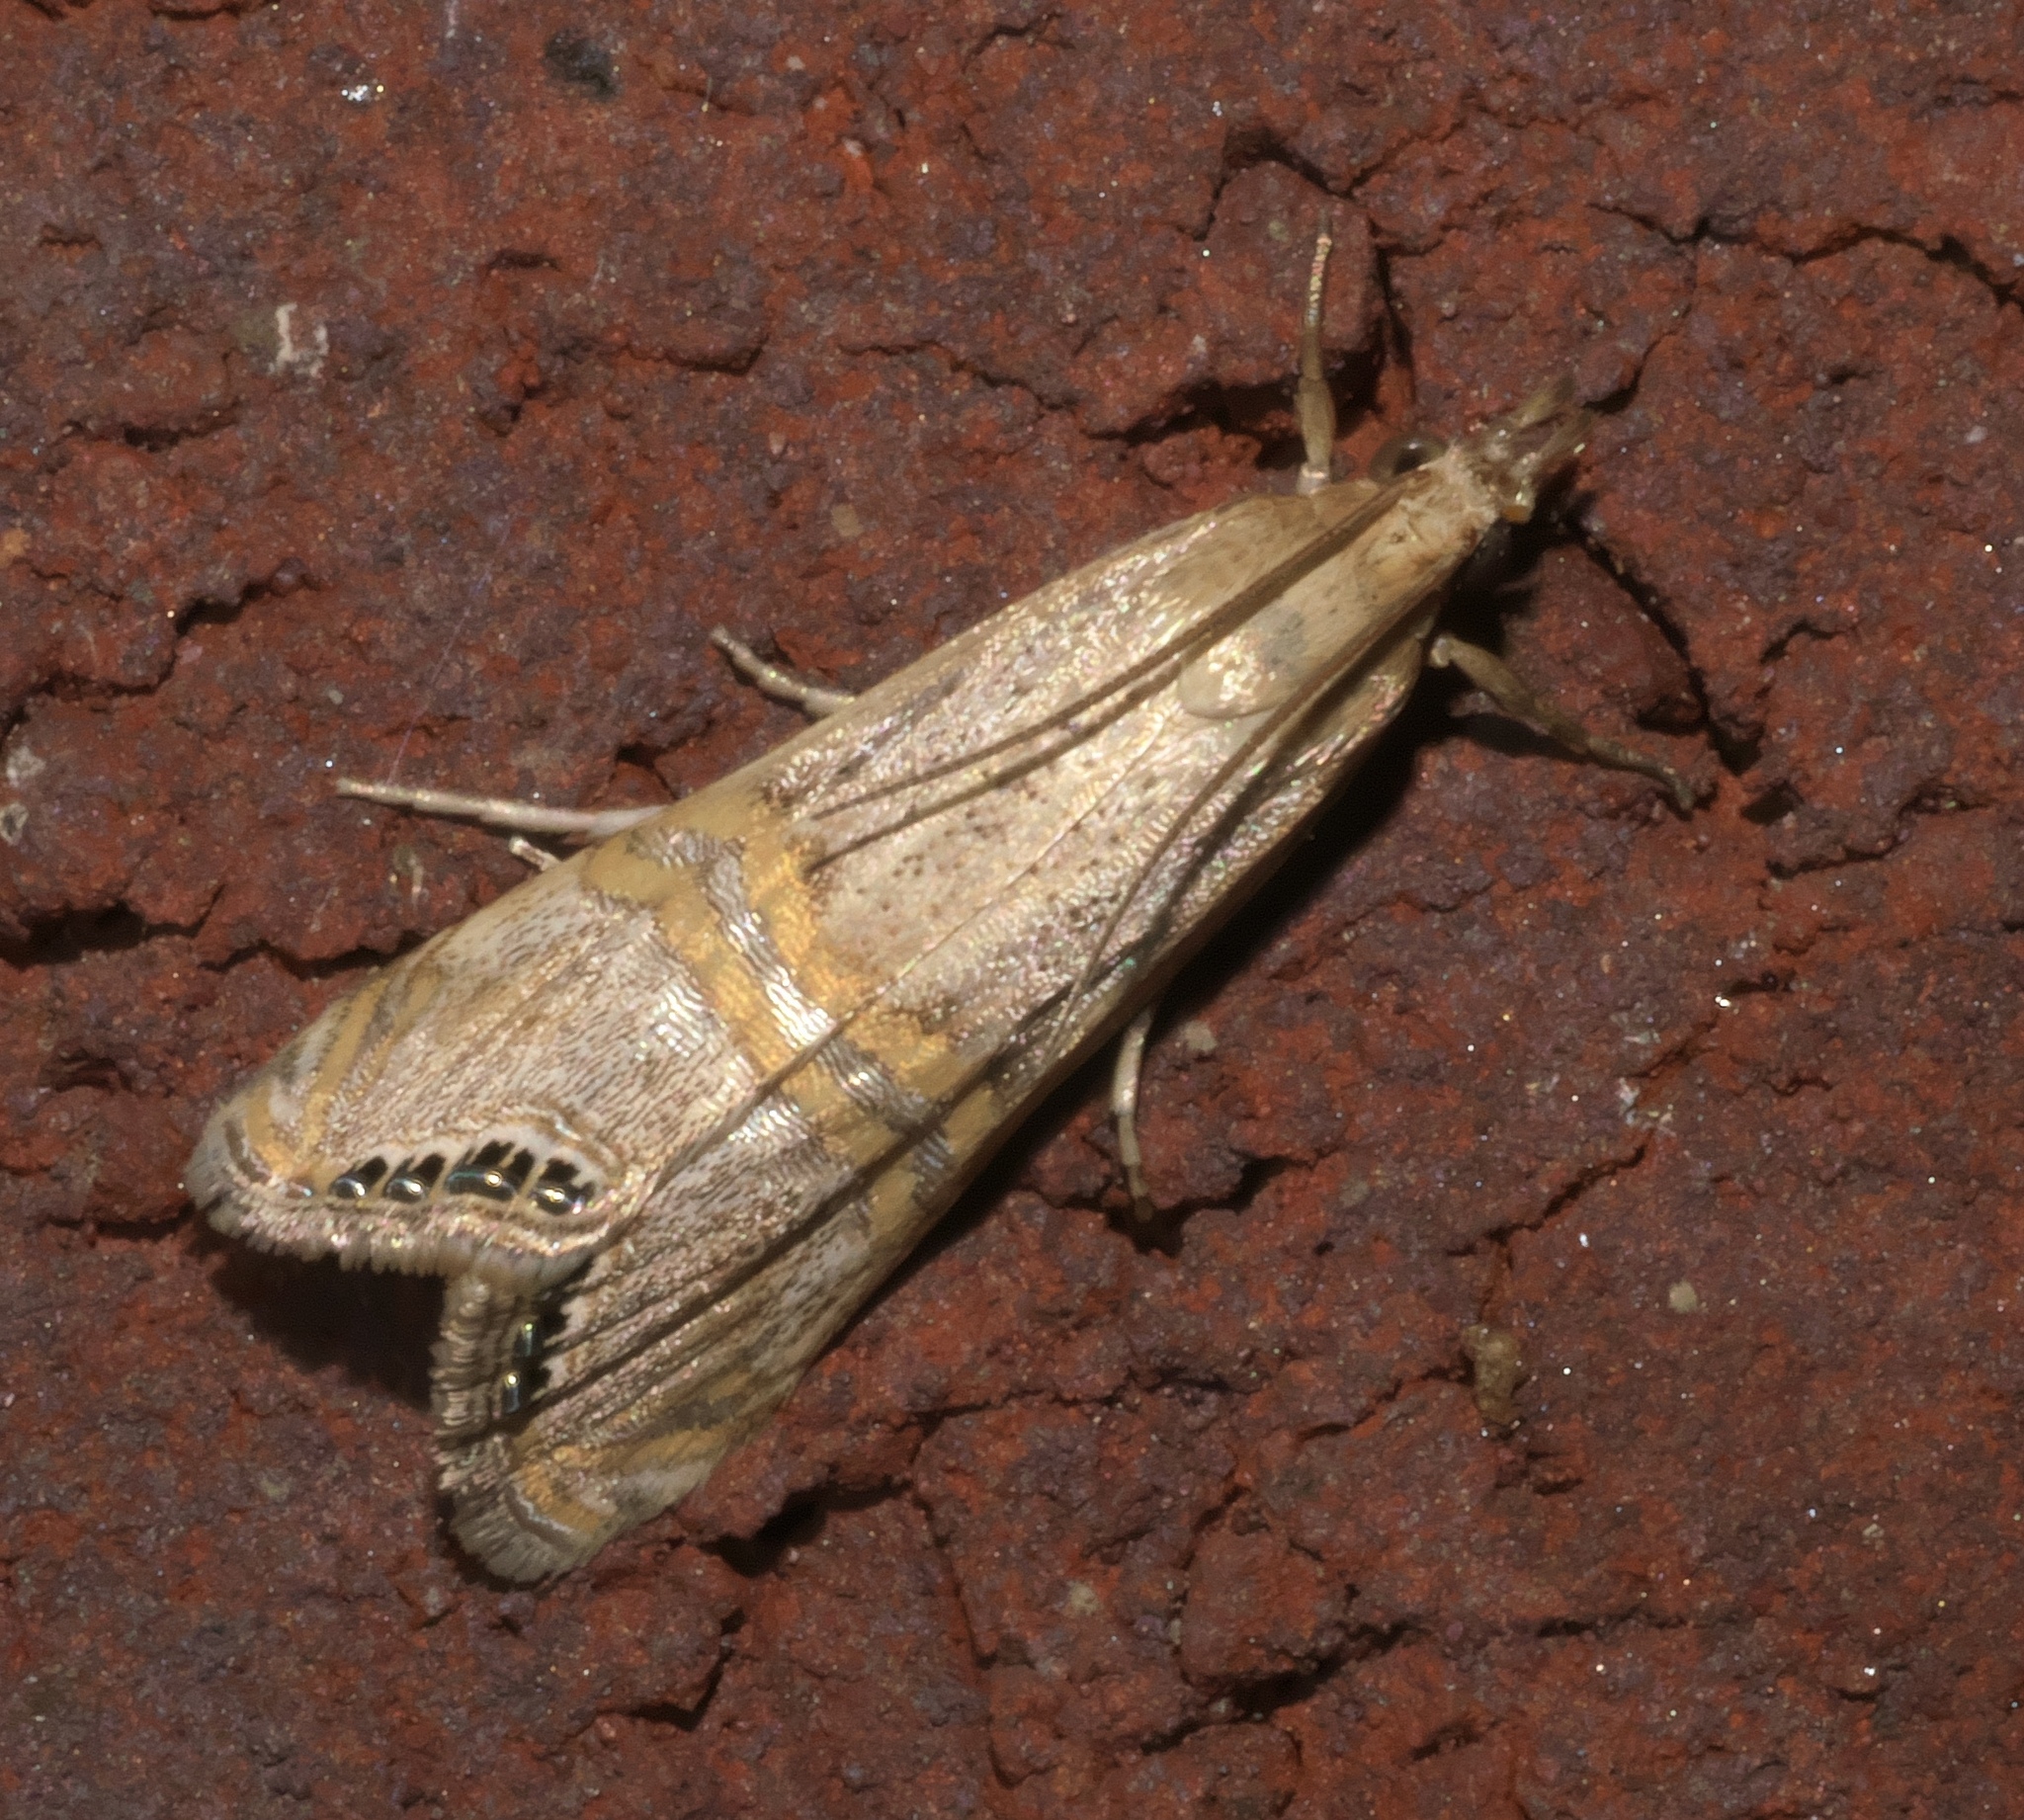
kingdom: Animalia
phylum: Arthropoda
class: Insecta
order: Lepidoptera
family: Crambidae
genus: Euchromius
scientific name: Euchromius ocellea
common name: Necklace veneer moth
